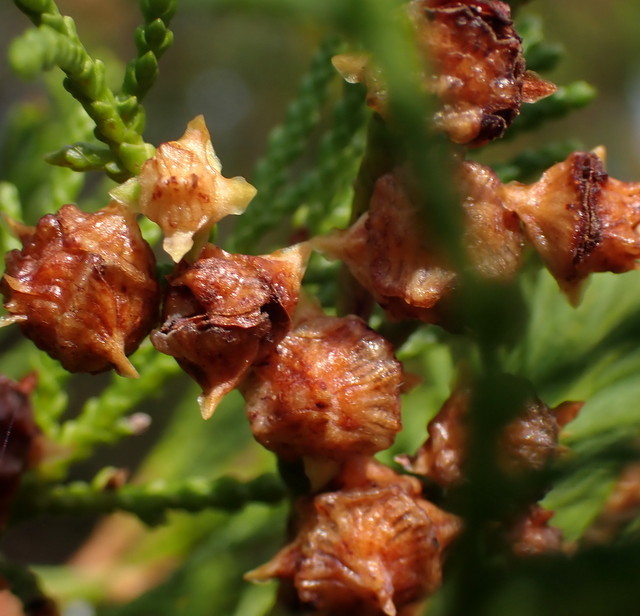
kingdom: Plantae
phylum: Tracheophyta
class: Pinopsida
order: Pinales
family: Cupressaceae
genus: Chamaecyparis
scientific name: Chamaecyparis thyoides
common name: Atlantic white cedar
